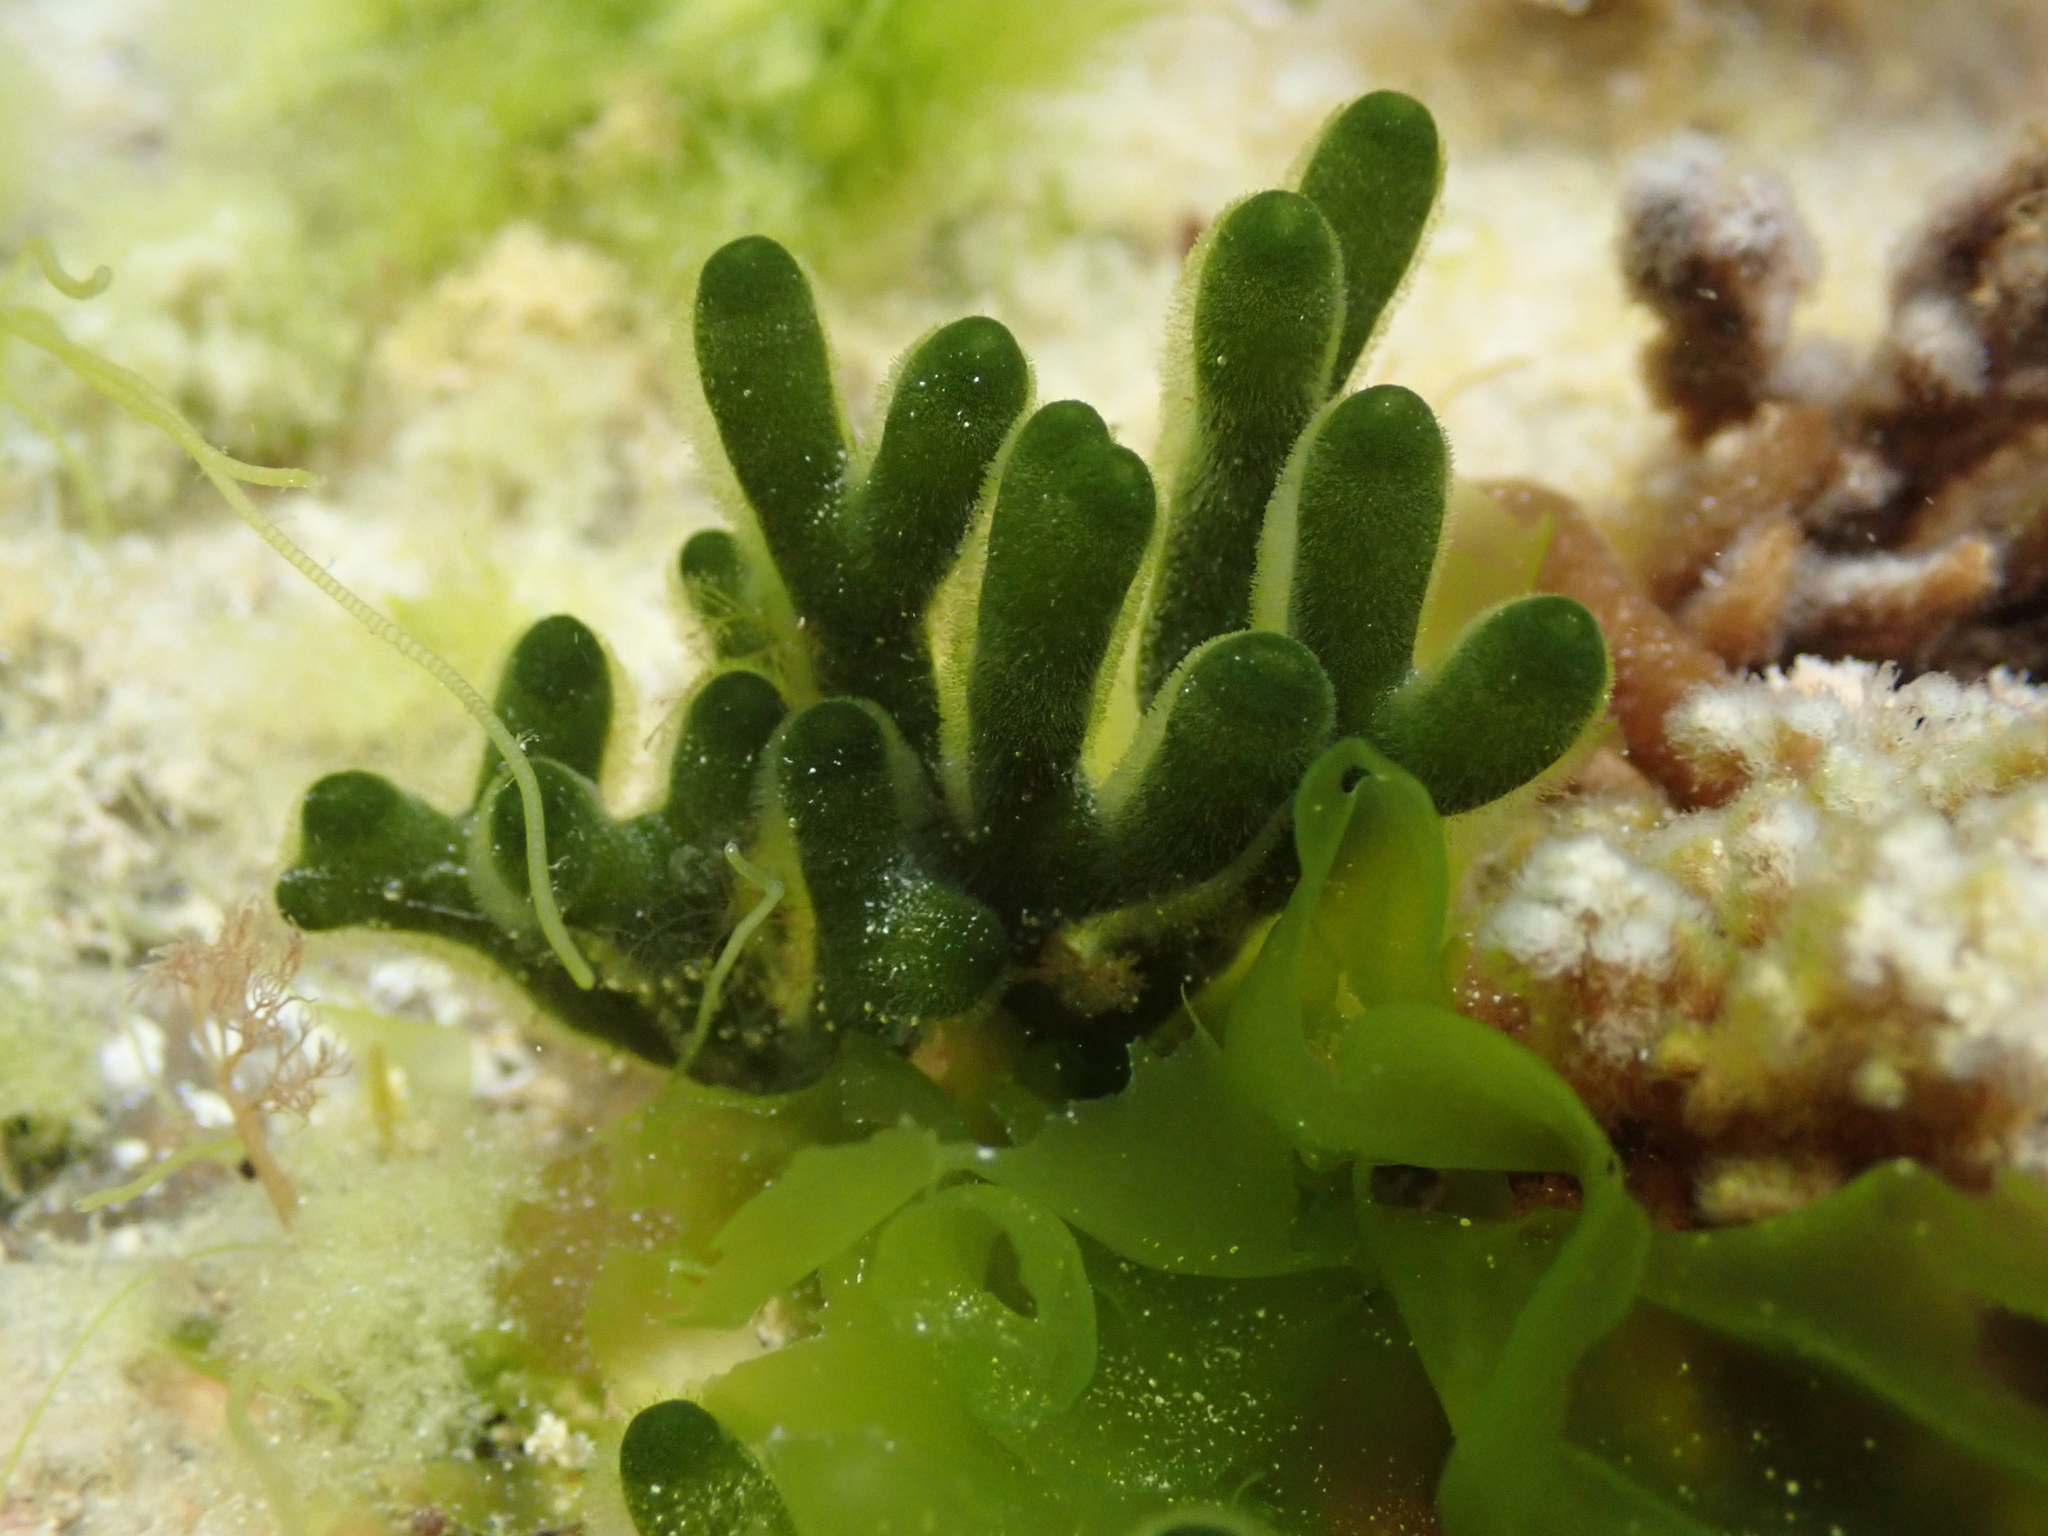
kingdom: Plantae
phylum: Chlorophyta
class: Ulvophyceae
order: Bryopsidales
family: Codiaceae
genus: Codium
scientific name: Codium fragile
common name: Dead man's fingers
